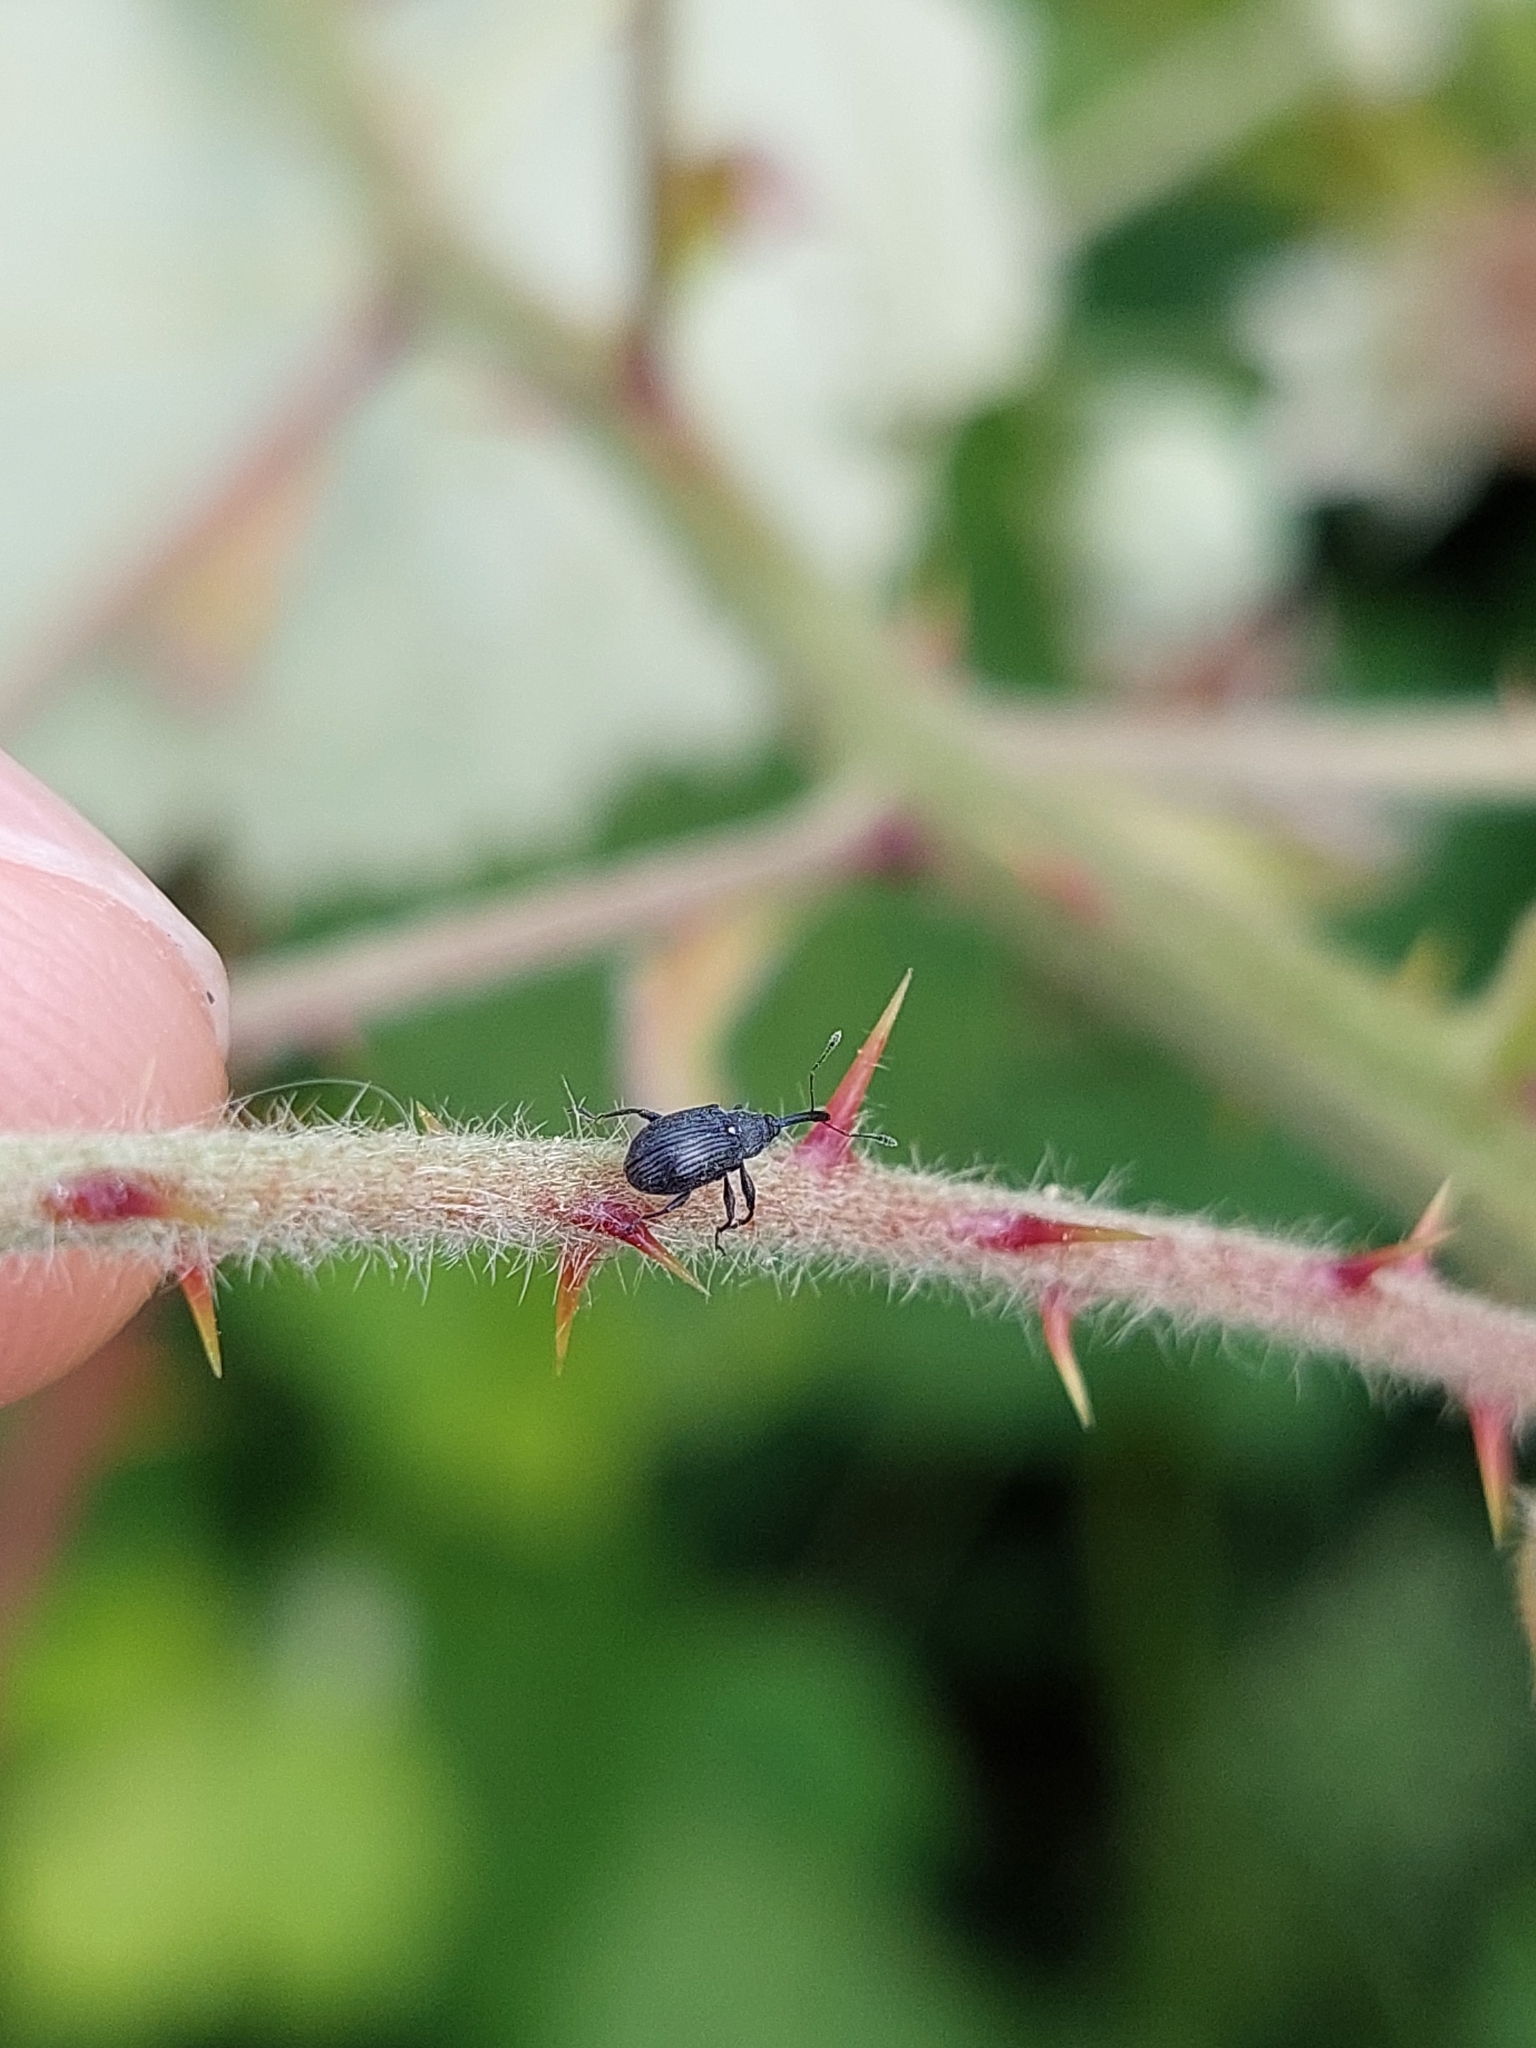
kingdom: Animalia
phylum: Arthropoda
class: Insecta
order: Coleoptera
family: Curculionidae
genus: Anthonomus
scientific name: Anthonomus rubi
